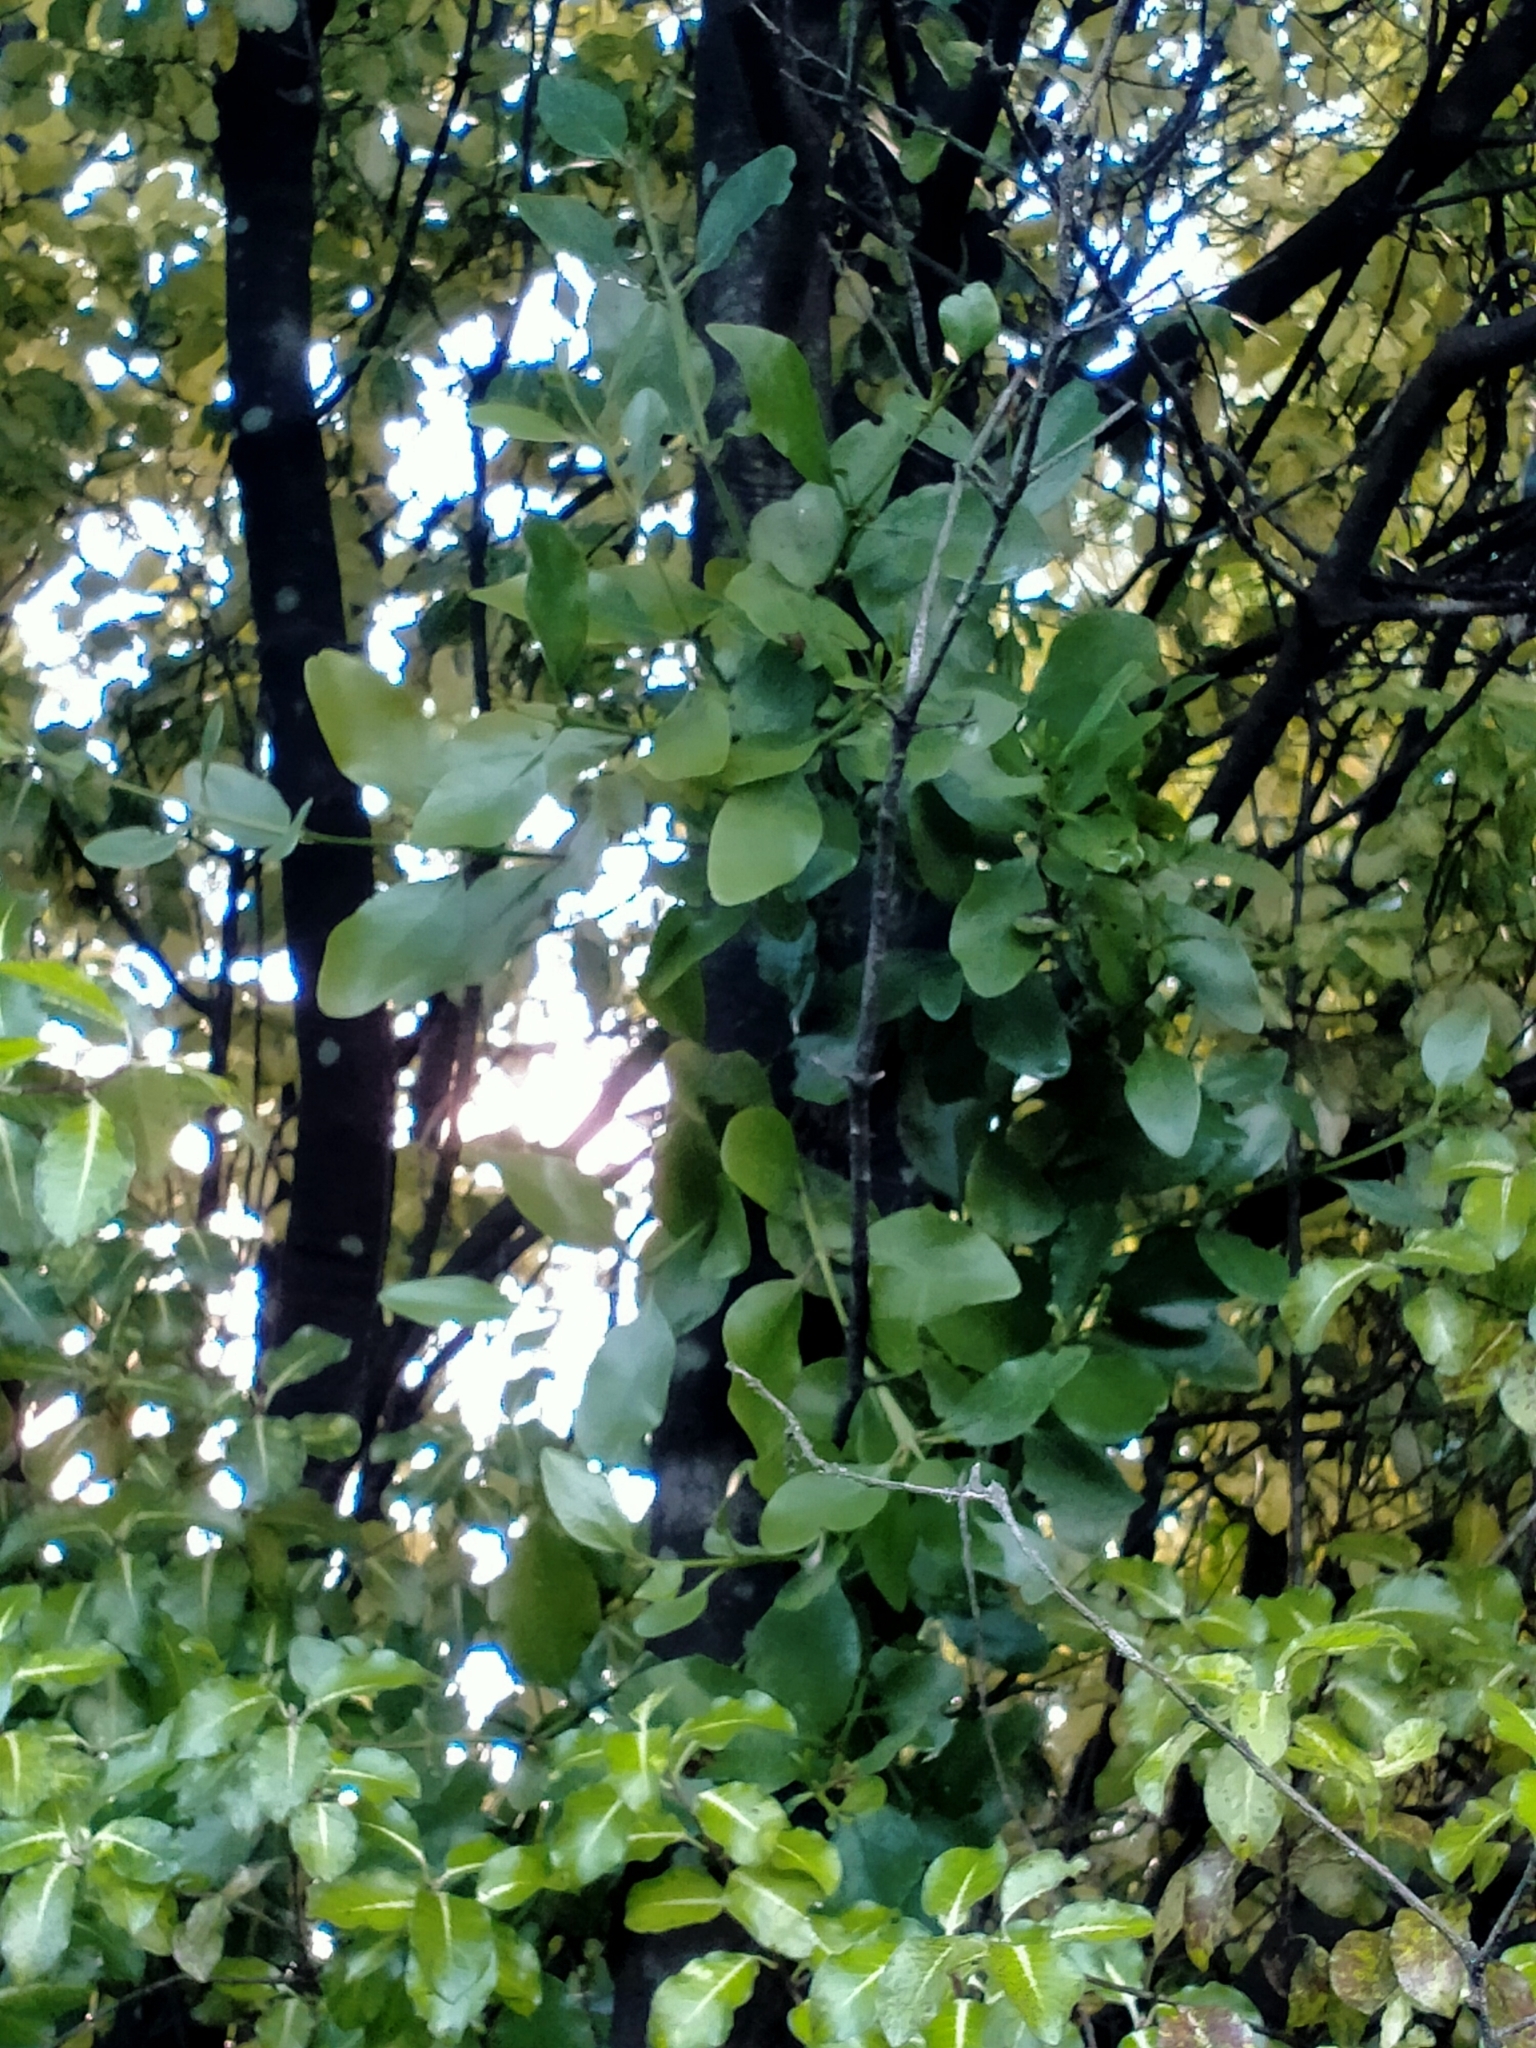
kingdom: Plantae
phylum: Tracheophyta
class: Magnoliopsida
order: Santalales
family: Loranthaceae
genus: Ileostylus
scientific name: Ileostylus micranthus
